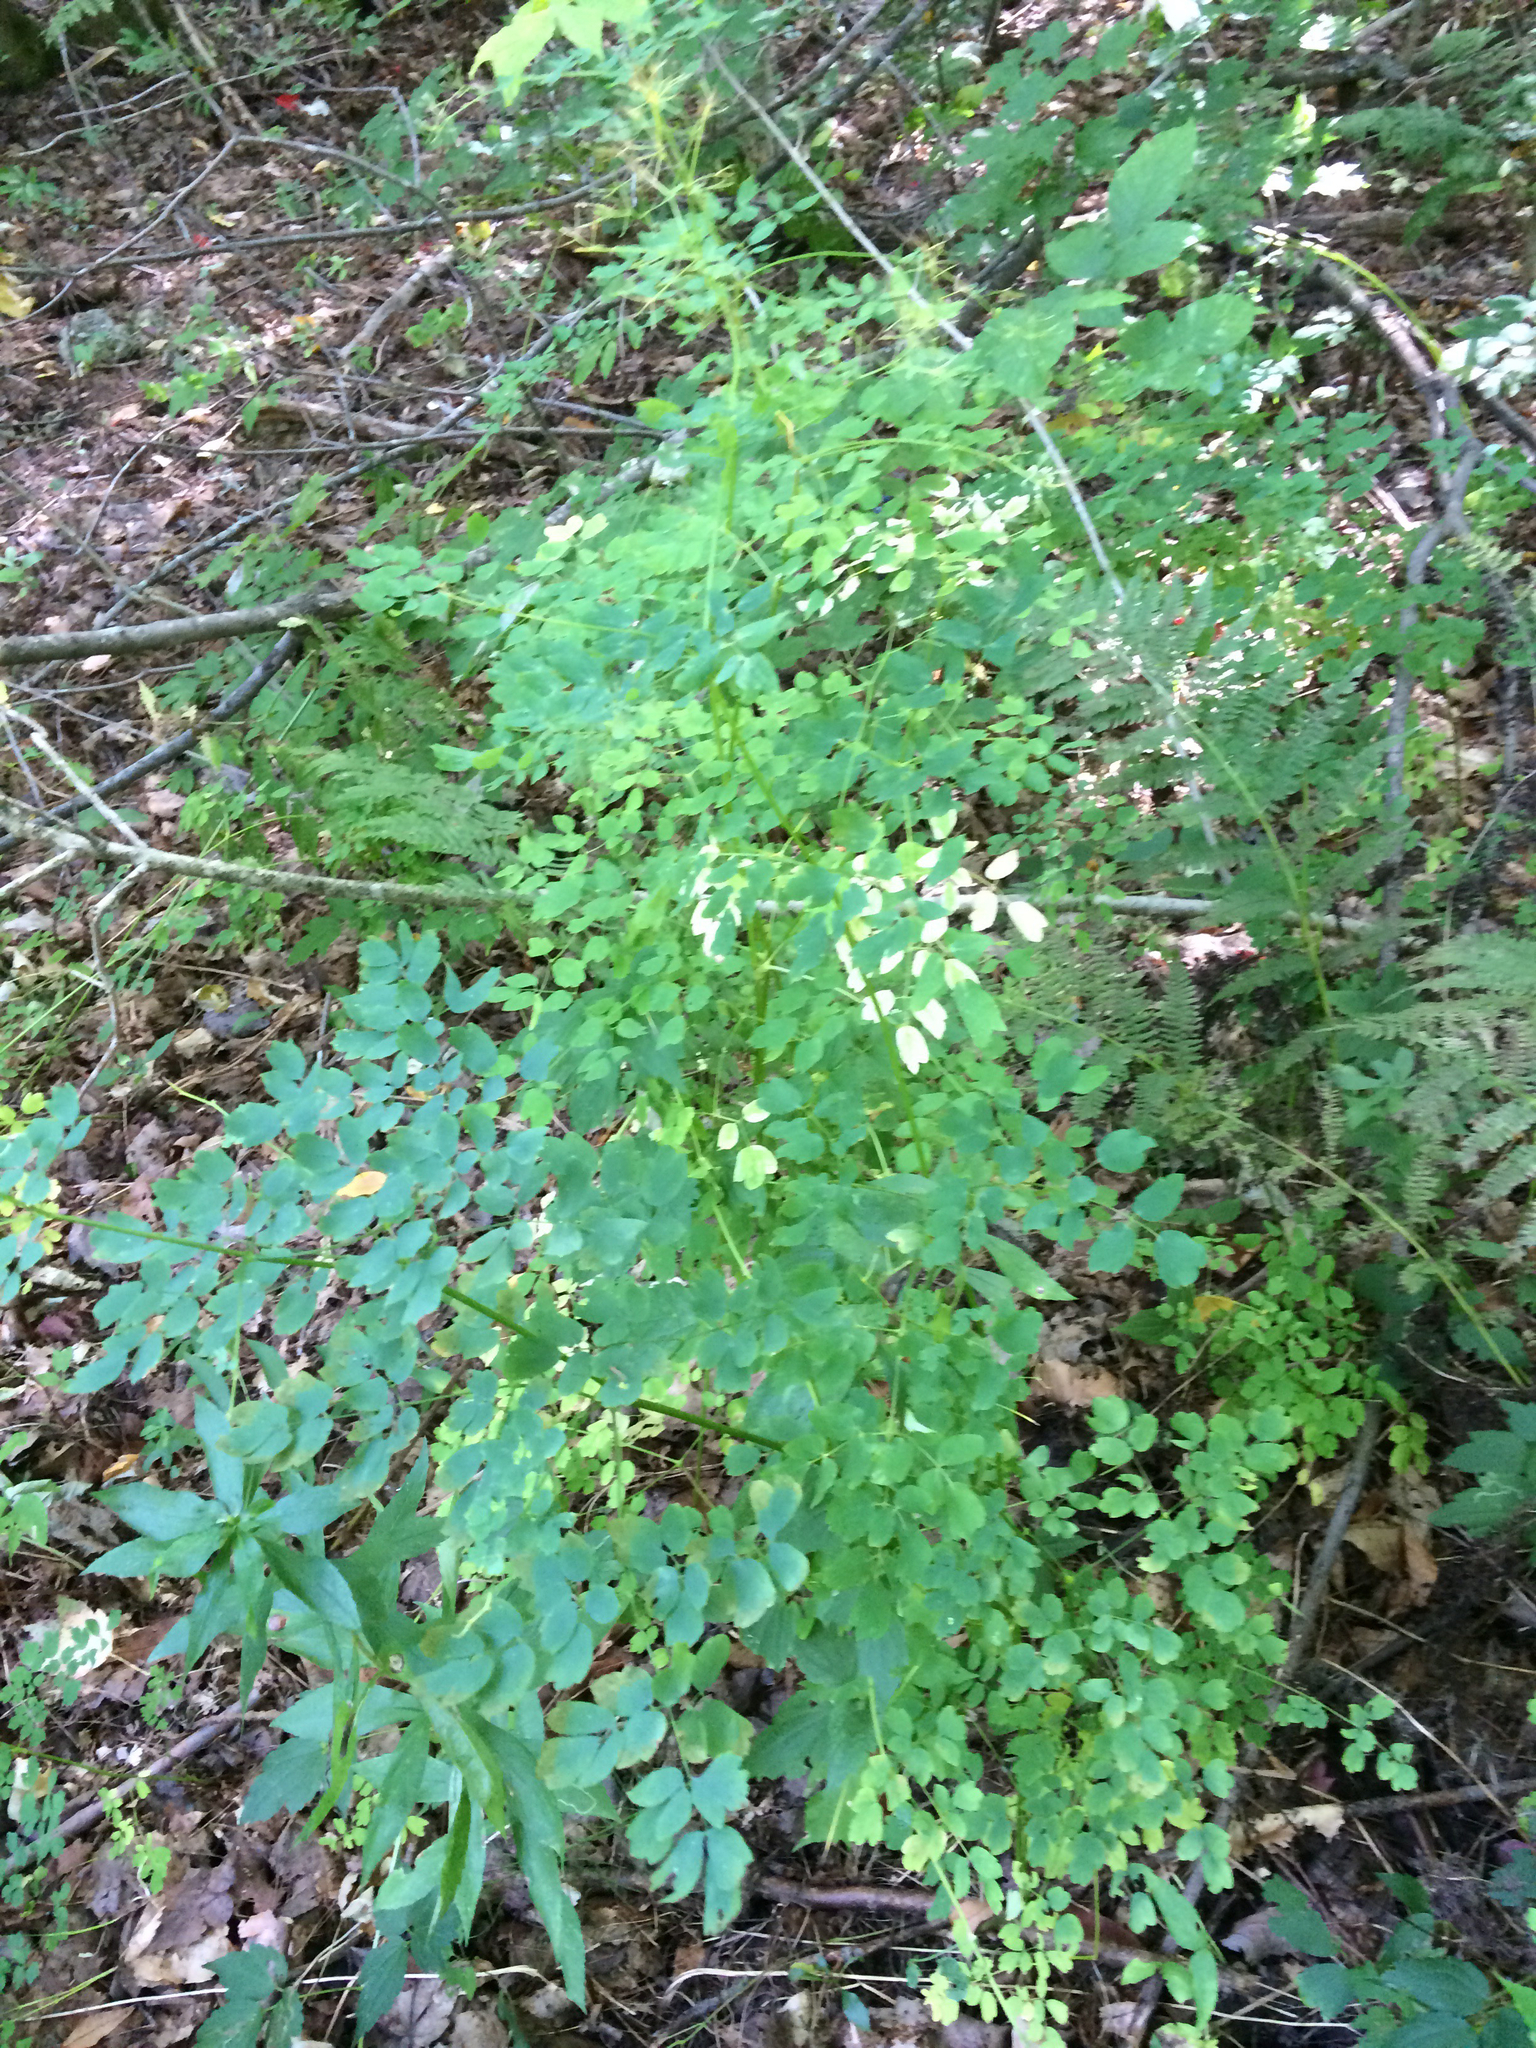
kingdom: Plantae
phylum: Tracheophyta
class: Magnoliopsida
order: Ranunculales
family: Ranunculaceae
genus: Thalictrum
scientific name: Thalictrum pubescens
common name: King-of-the-meadow
